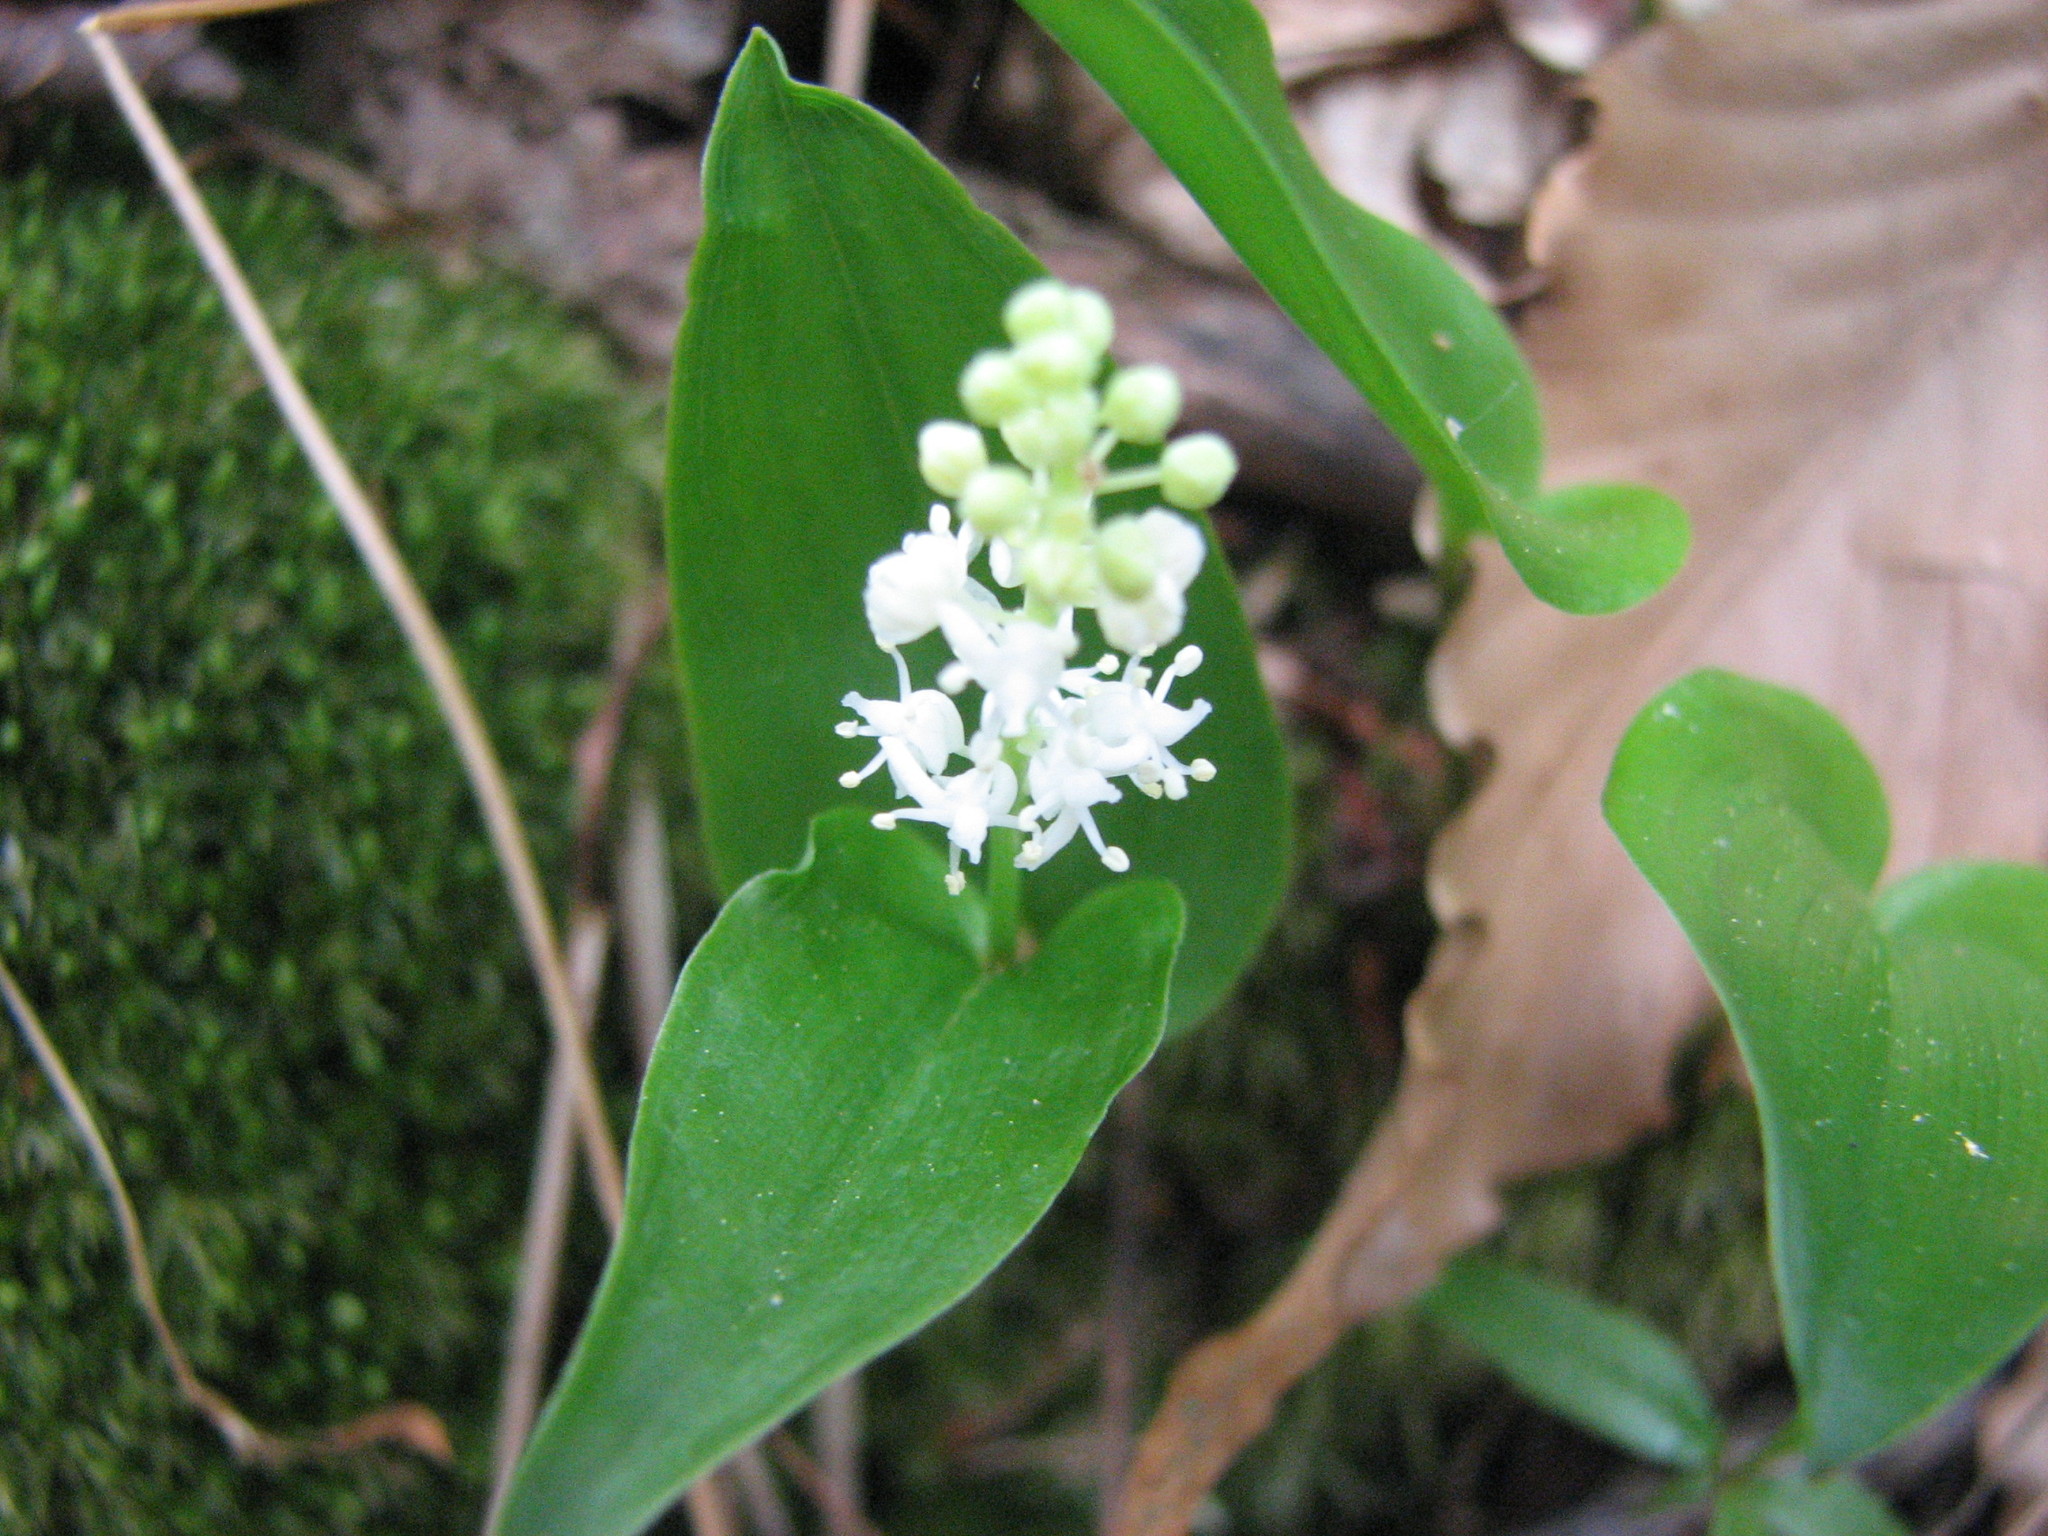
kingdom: Plantae
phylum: Tracheophyta
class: Liliopsida
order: Asparagales
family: Asparagaceae
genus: Maianthemum
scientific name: Maianthemum canadense
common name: False lily-of-the-valley
